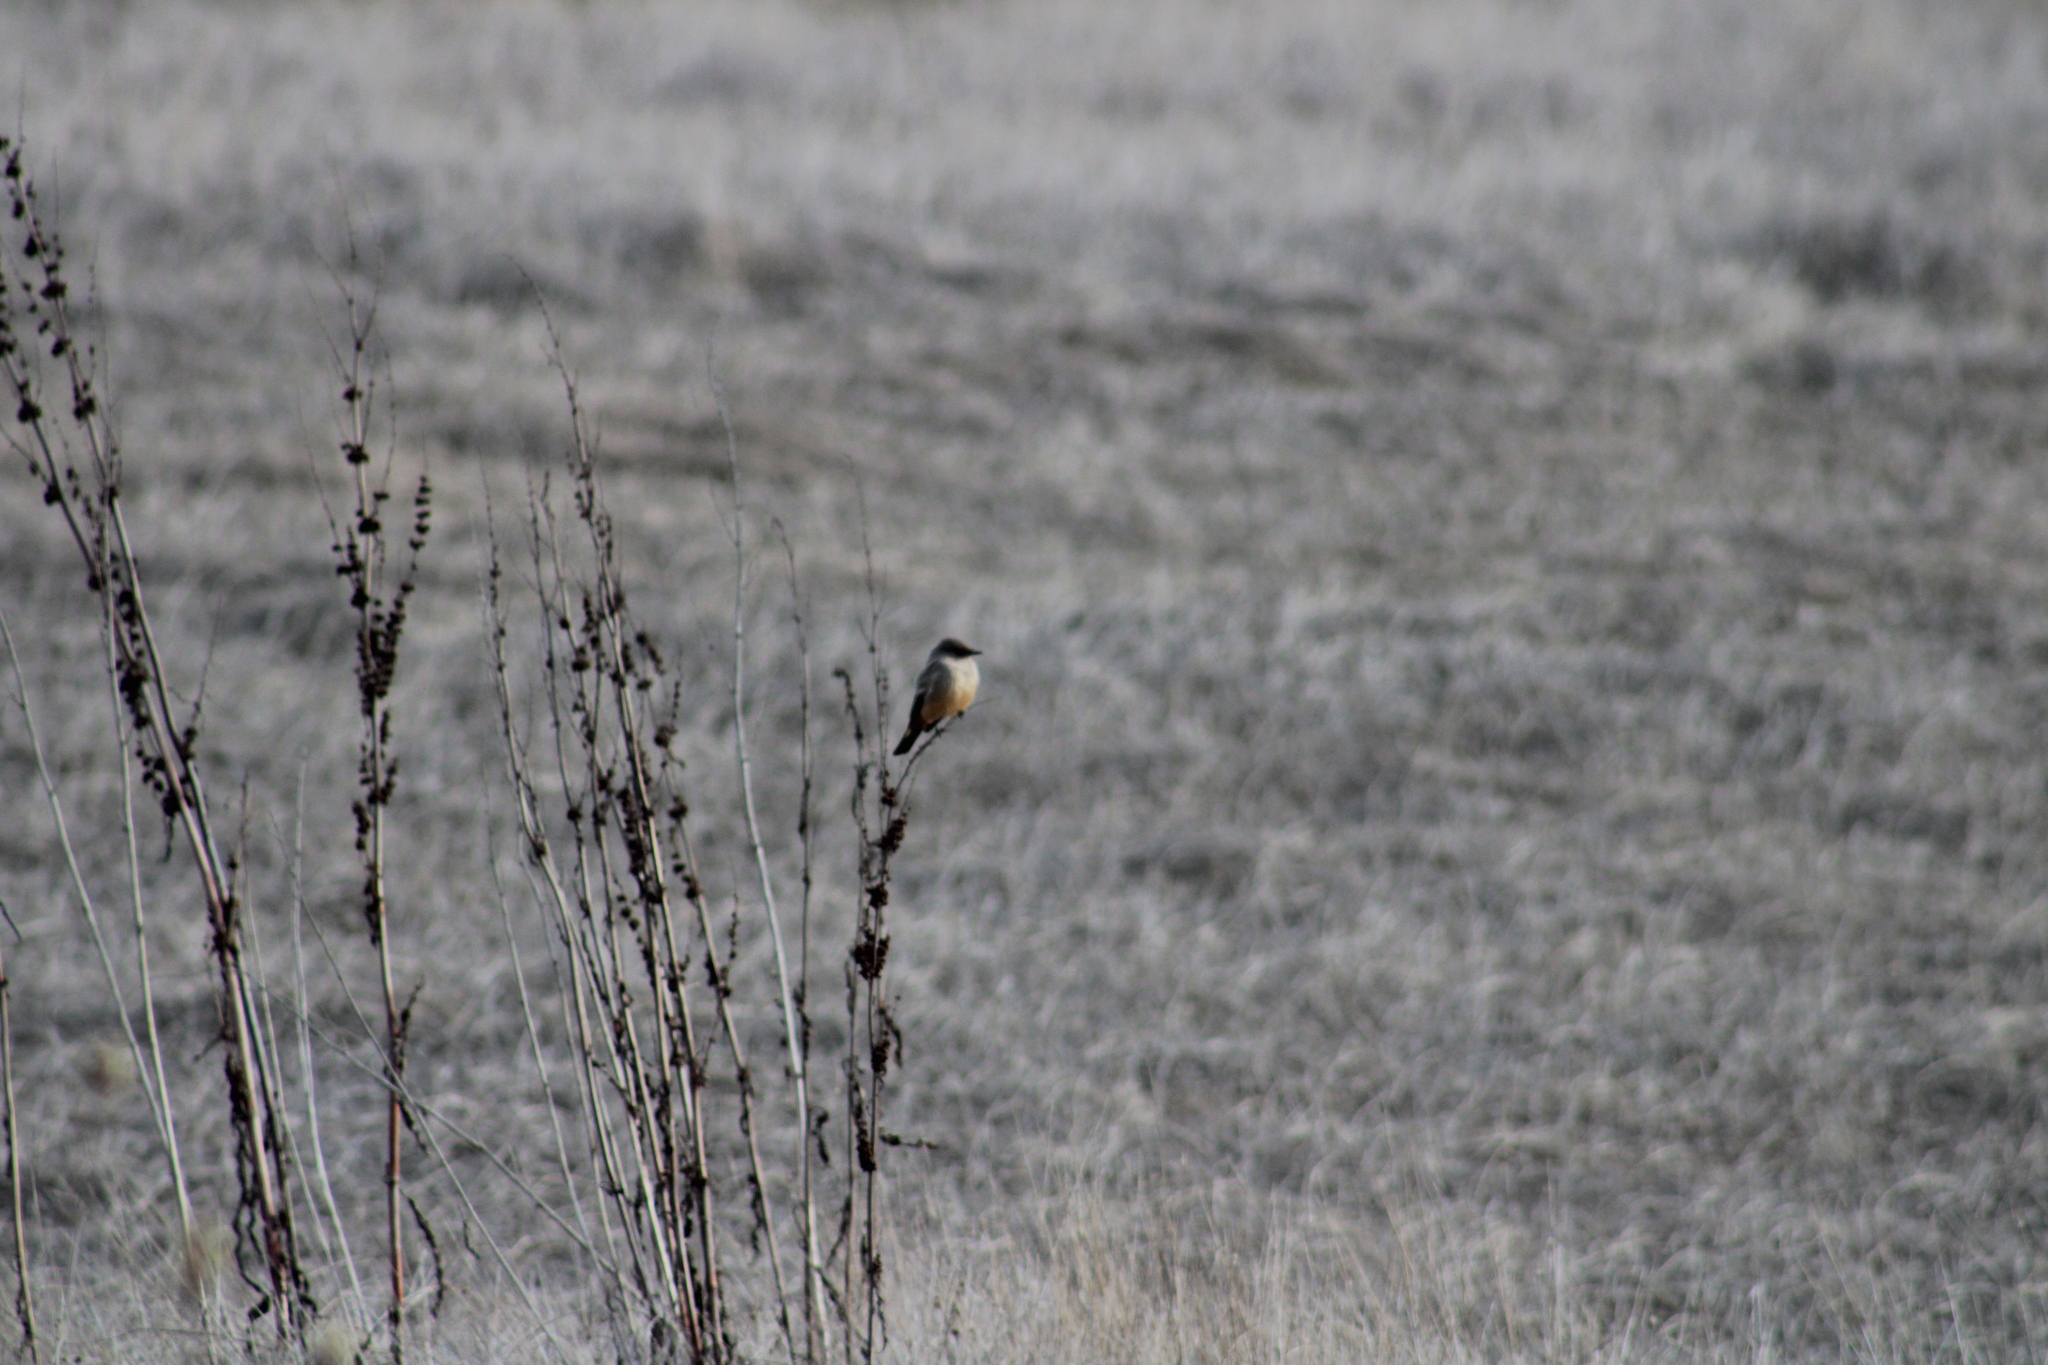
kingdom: Animalia
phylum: Chordata
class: Aves
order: Passeriformes
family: Tyrannidae
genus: Sayornis
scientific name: Sayornis saya
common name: Say's phoebe
